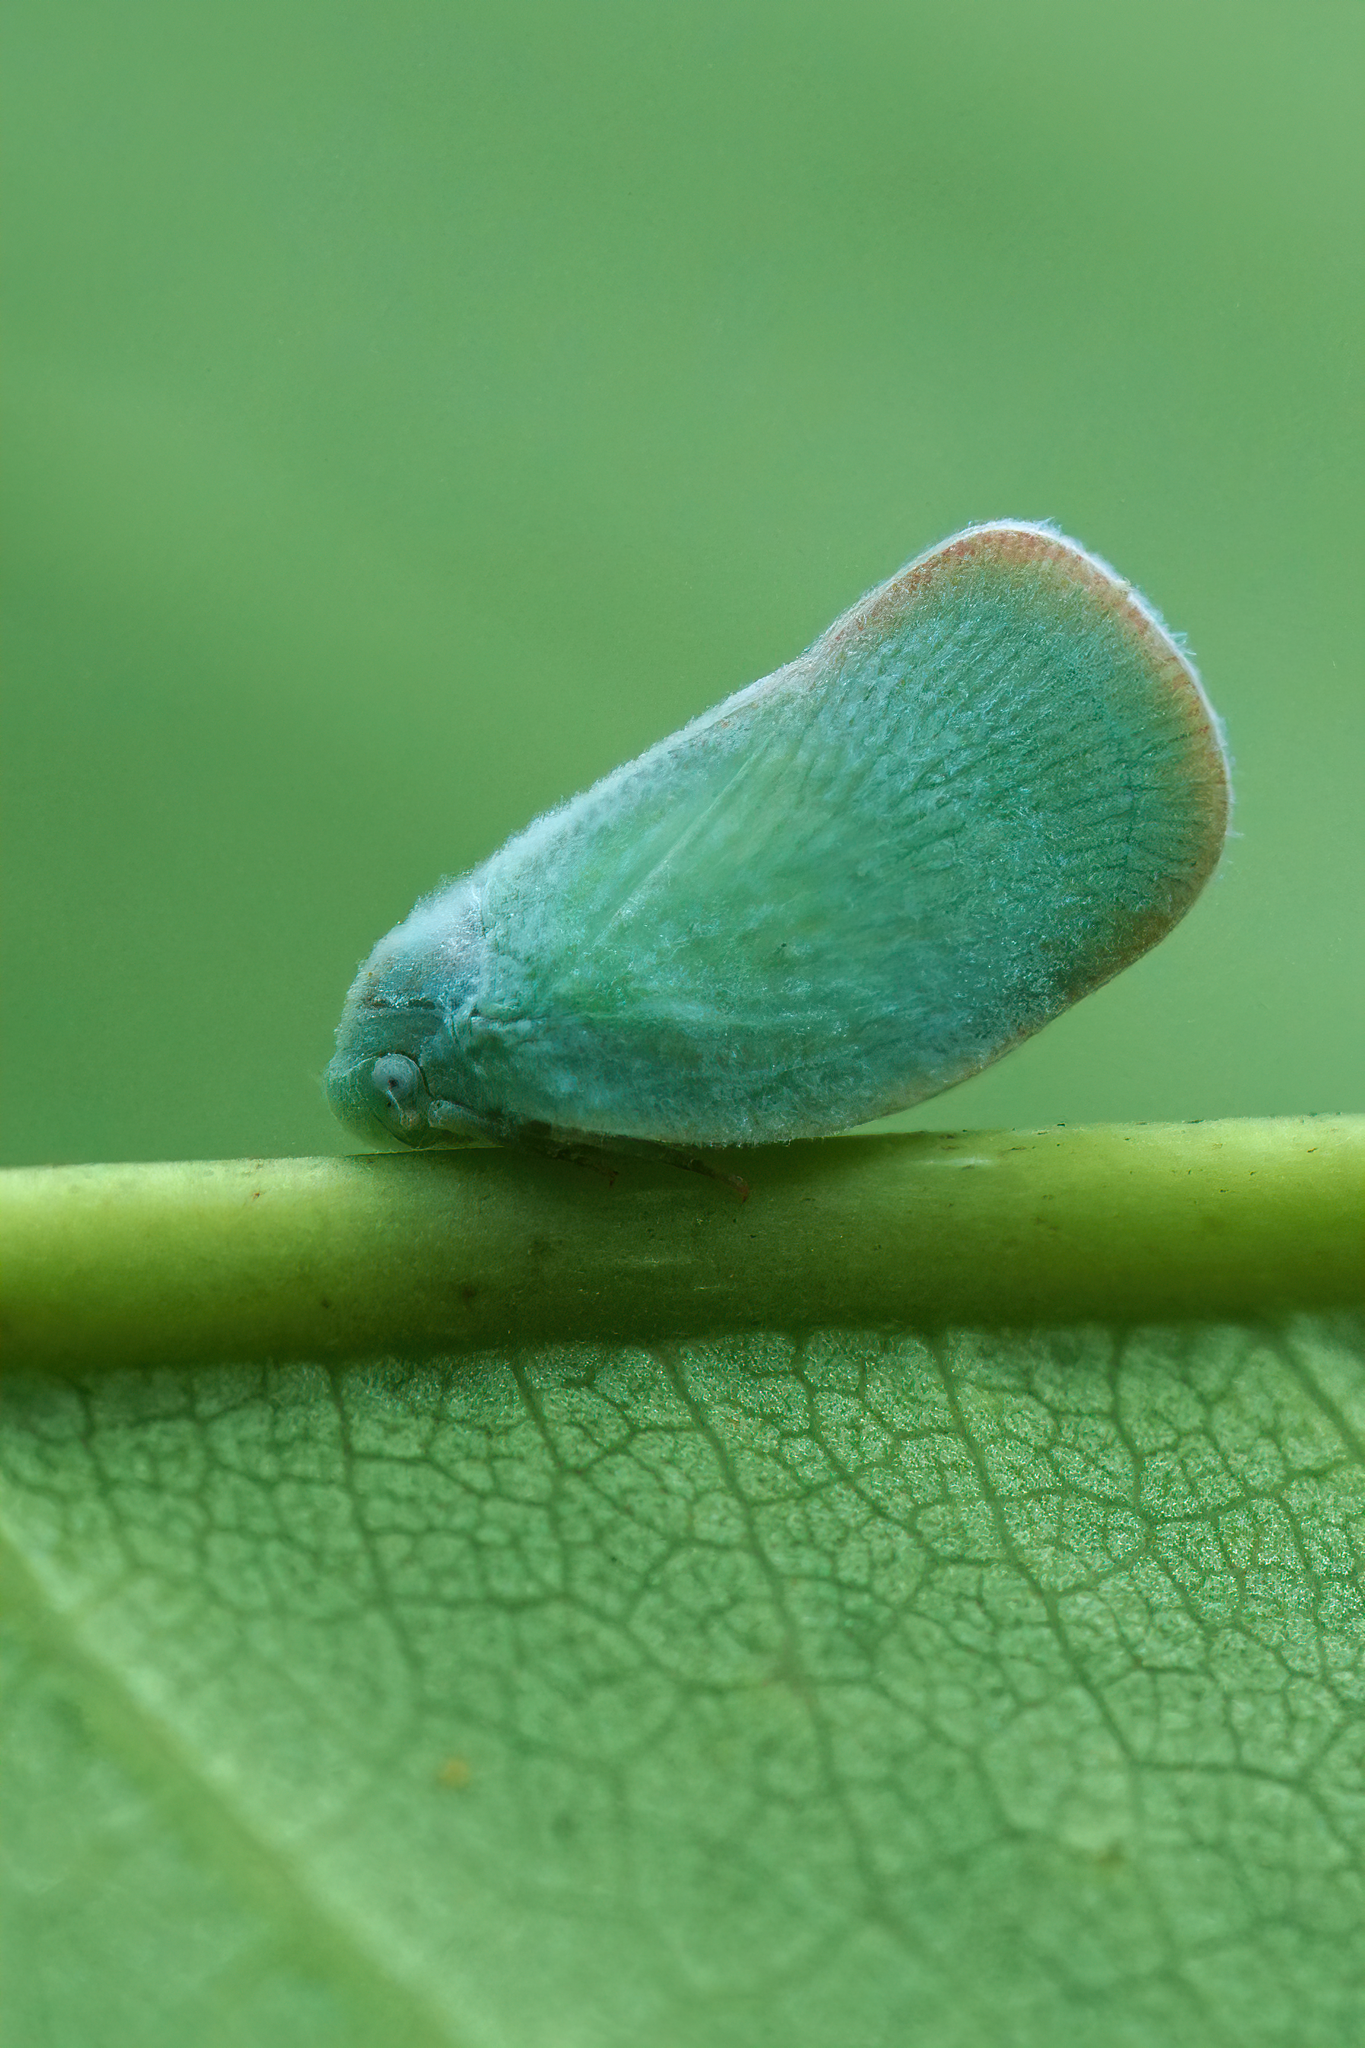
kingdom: Animalia
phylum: Arthropoda
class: Insecta
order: Hemiptera
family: Flatidae
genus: Ormenoides
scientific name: Ormenoides venusta
